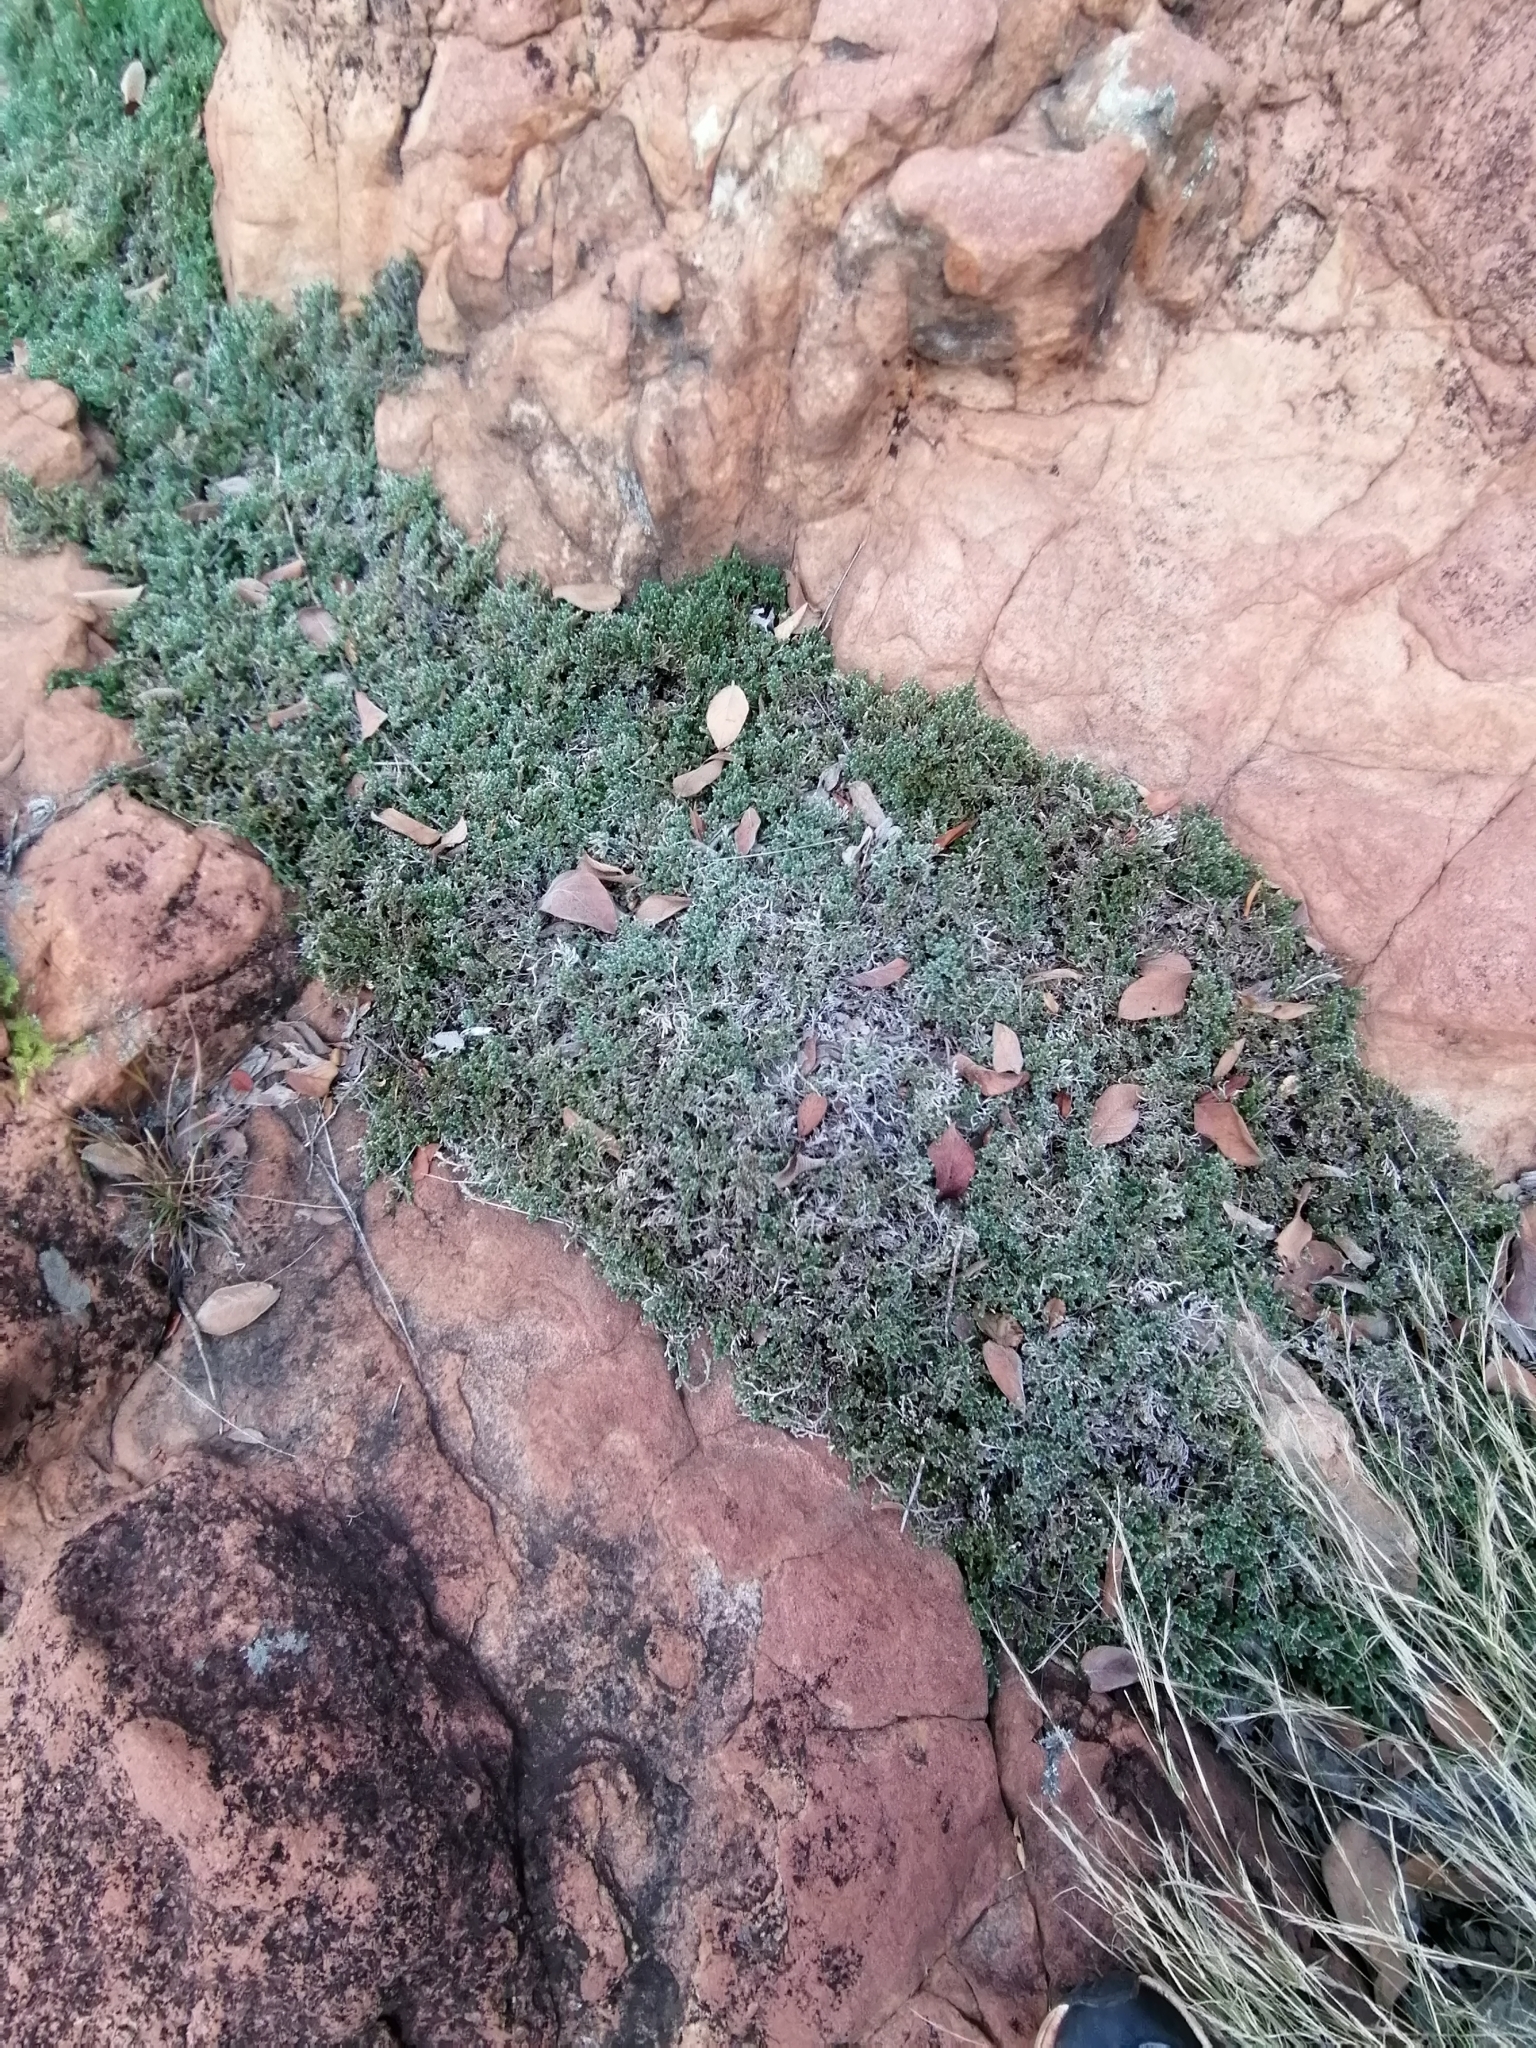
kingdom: Plantae
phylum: Tracheophyta
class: Lycopodiopsida
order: Selaginellales
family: Selaginellaceae
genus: Selaginella
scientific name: Selaginella dregei
